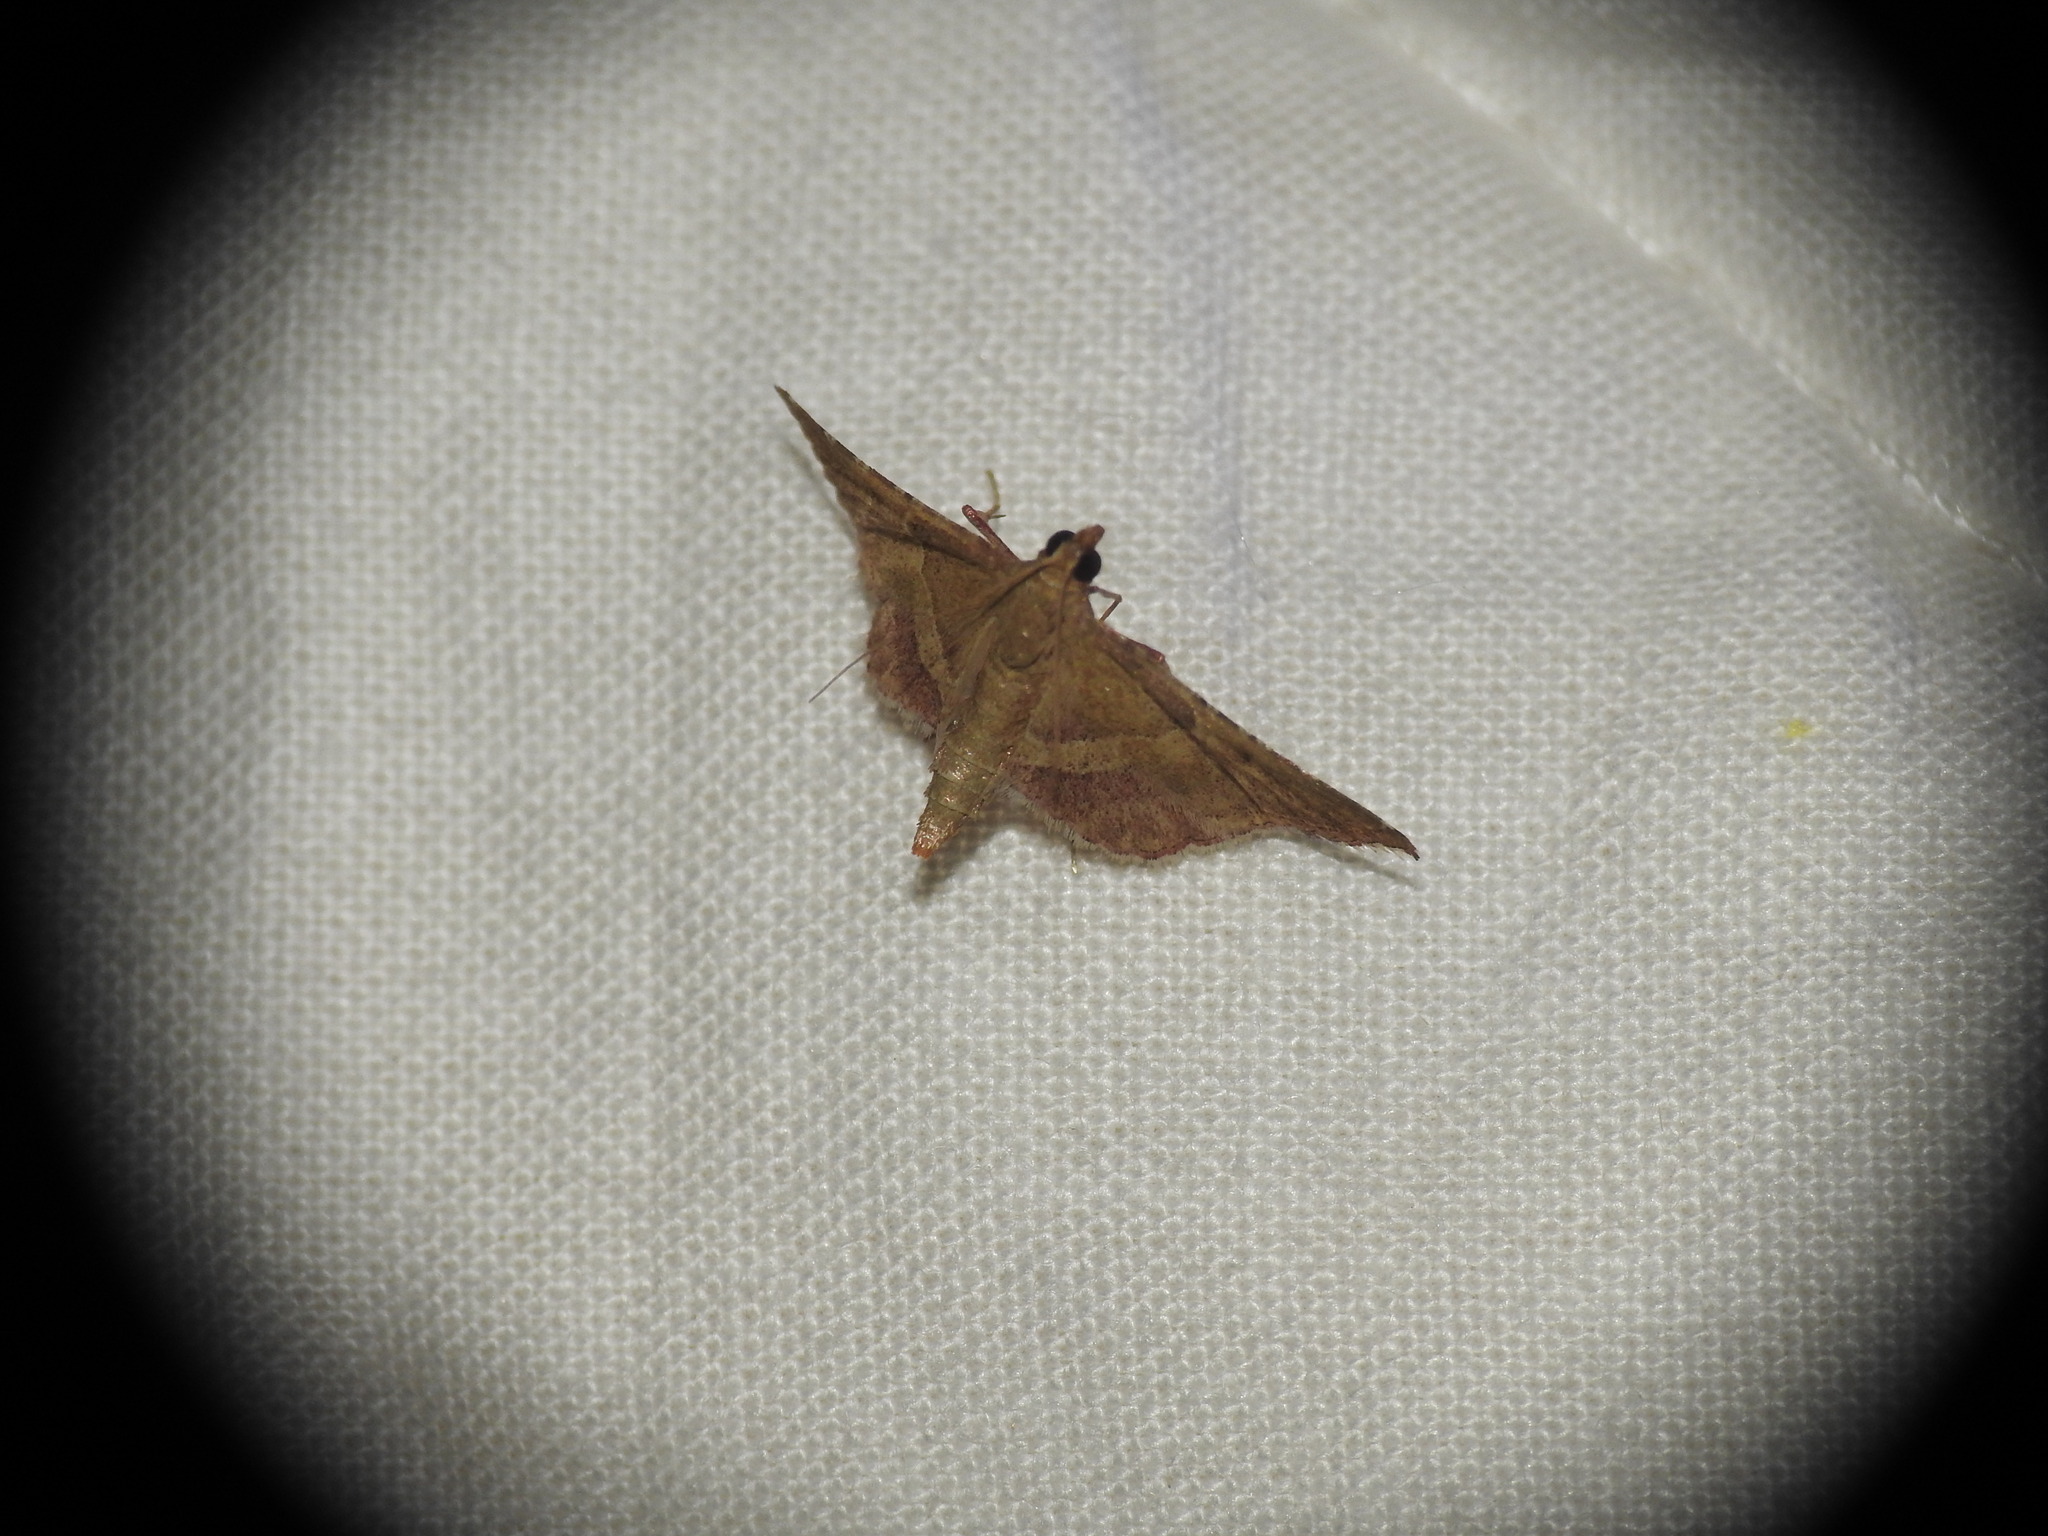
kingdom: Animalia
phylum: Arthropoda
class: Insecta
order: Lepidoptera
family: Pyralidae
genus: Endotricha
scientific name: Endotricha flammealis
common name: Rosy tabby
